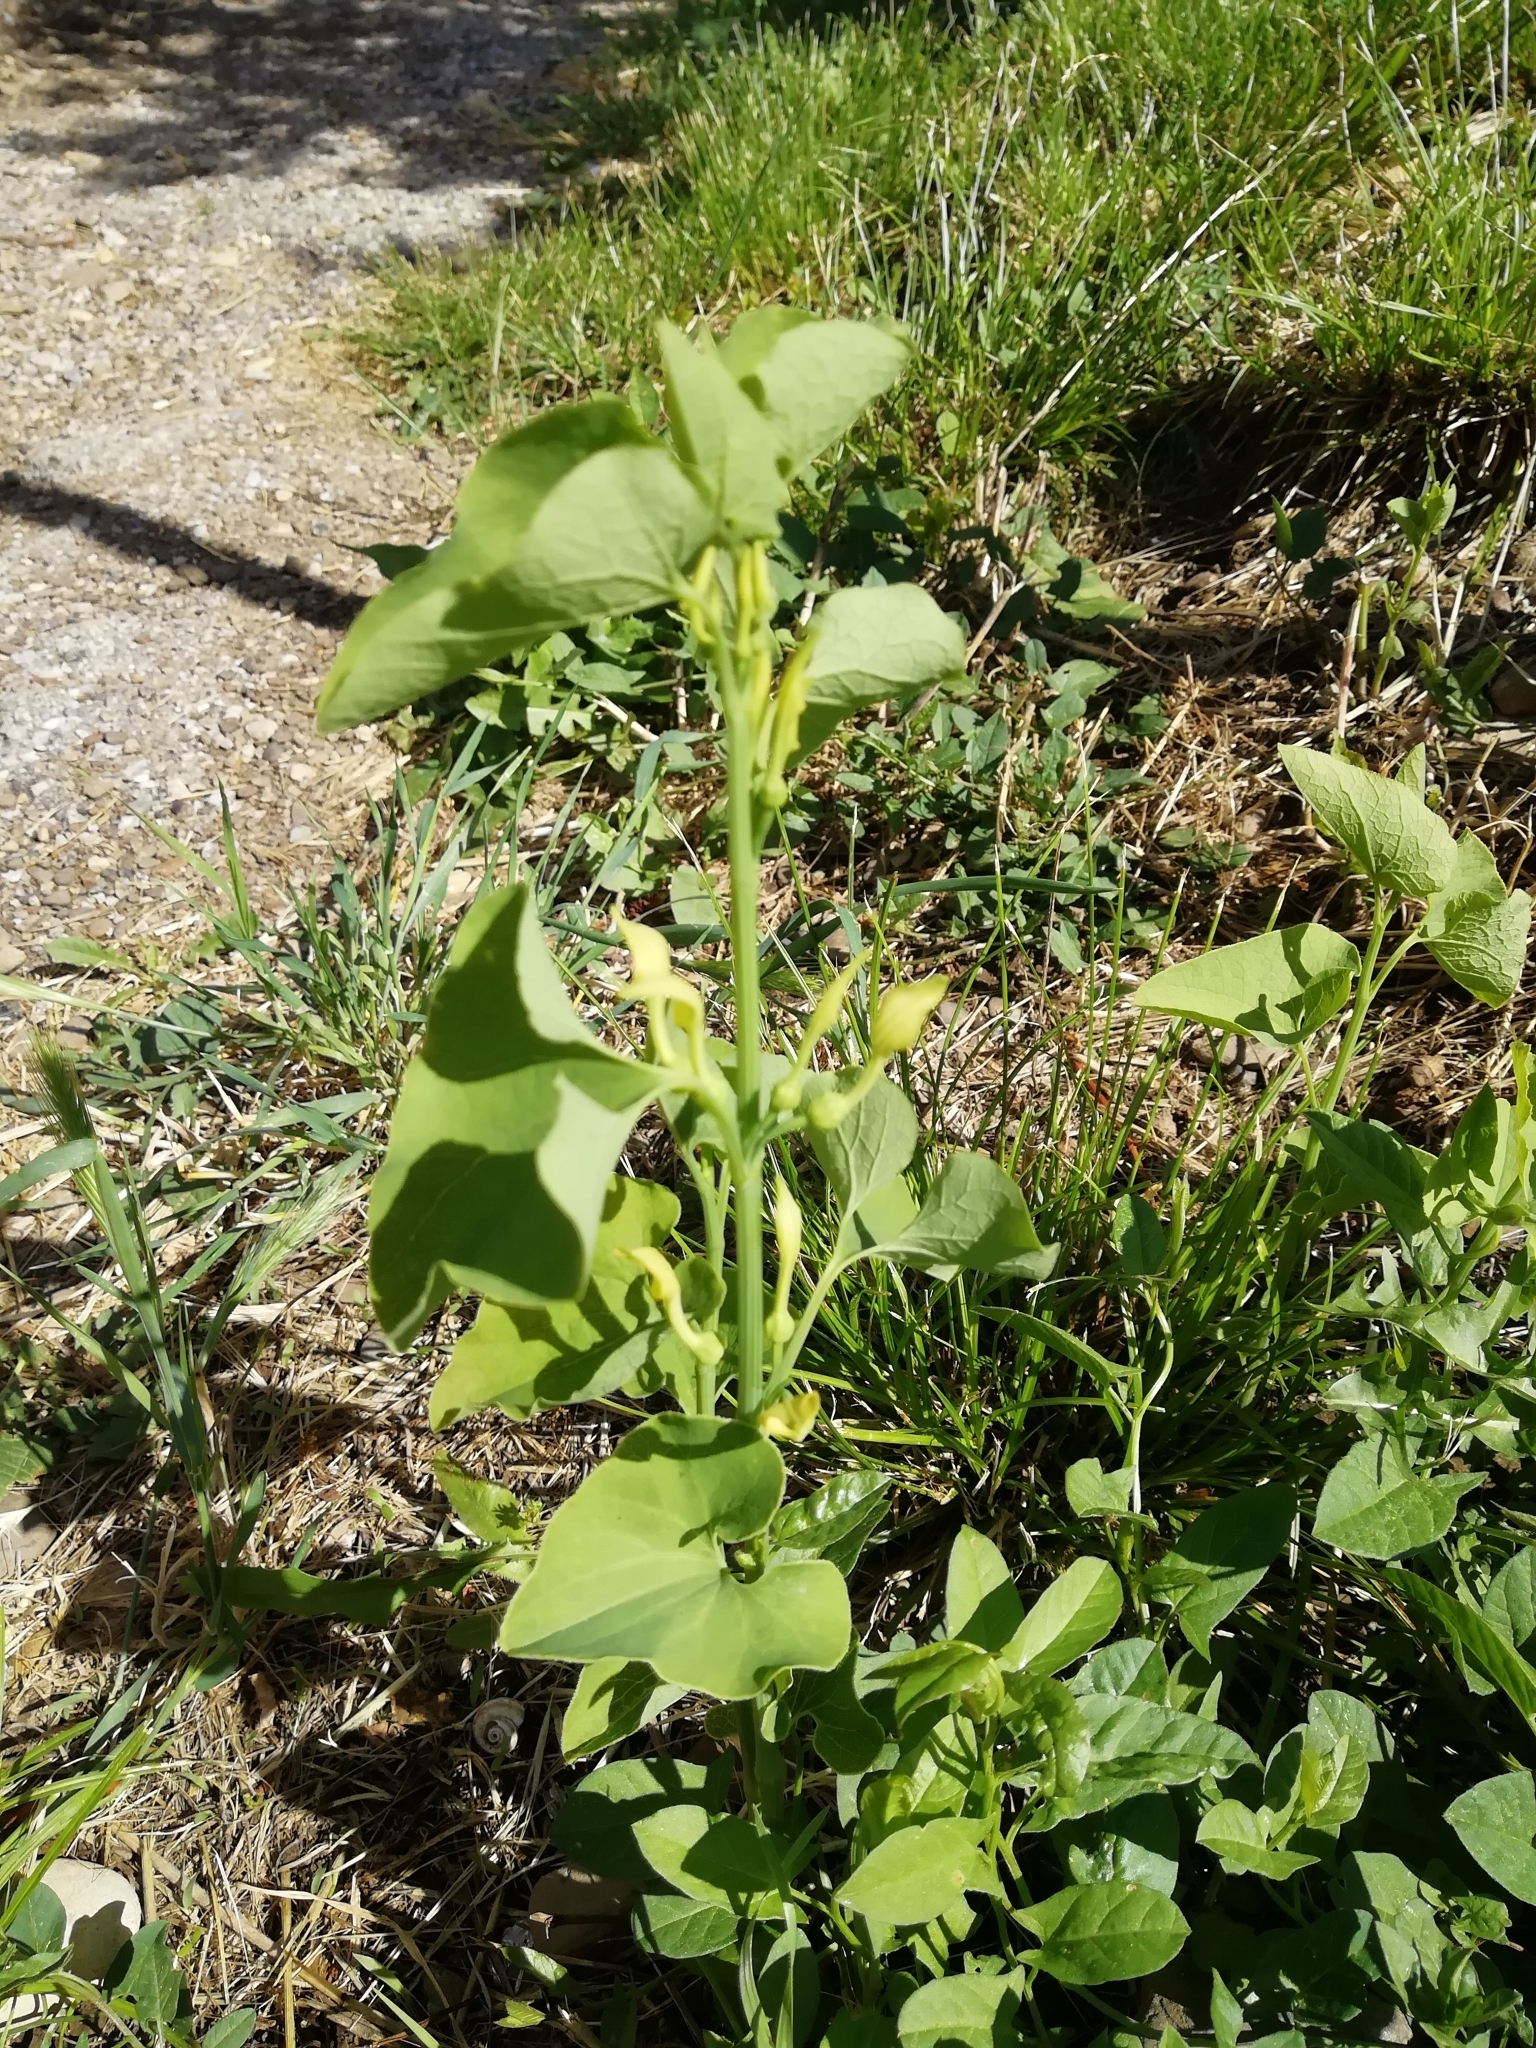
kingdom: Plantae
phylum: Tracheophyta
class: Magnoliopsida
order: Piperales
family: Aristolochiaceae
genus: Aristolochia
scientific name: Aristolochia clematitis
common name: Birthwort
